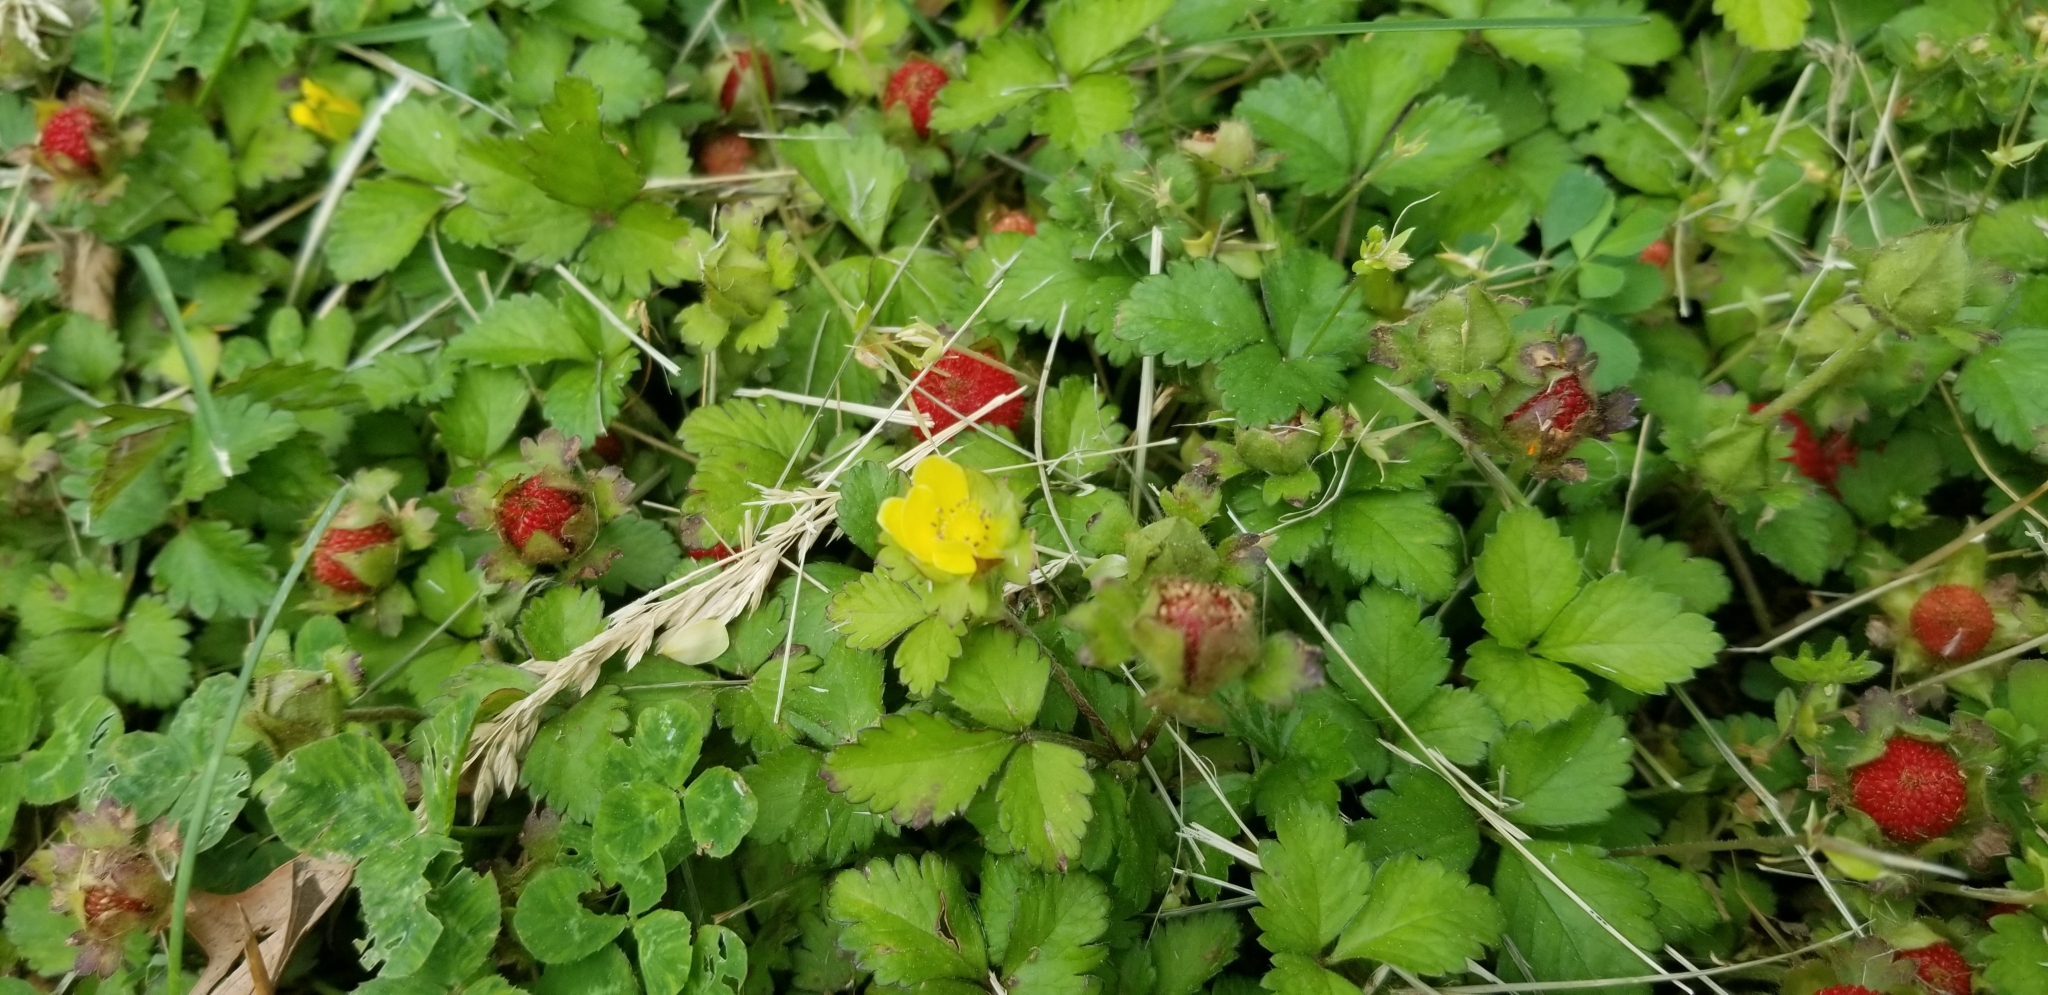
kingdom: Plantae
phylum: Tracheophyta
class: Magnoliopsida
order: Rosales
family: Rosaceae
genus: Potentilla
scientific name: Potentilla indica
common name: Yellow-flowered strawberry
